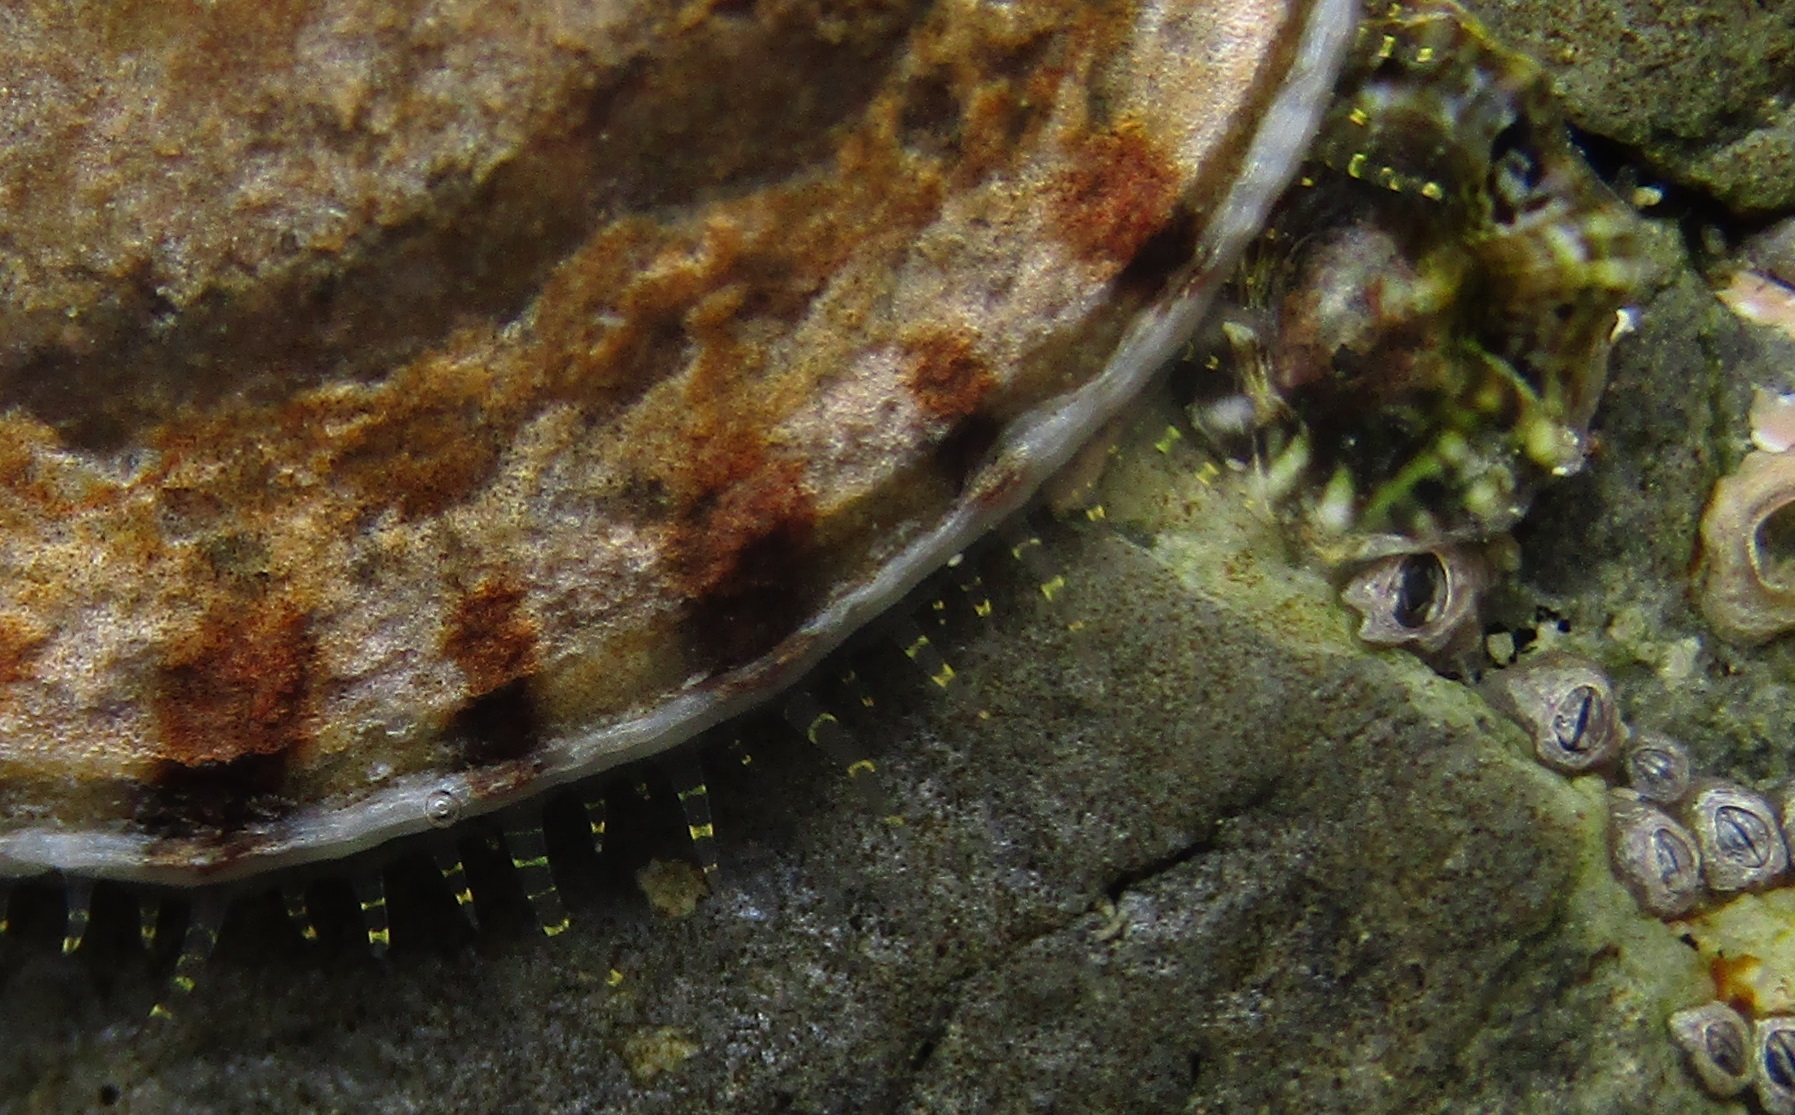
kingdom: Animalia
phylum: Mollusca
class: Gastropoda
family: Nacellidae
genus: Cellana
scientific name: Cellana radians
